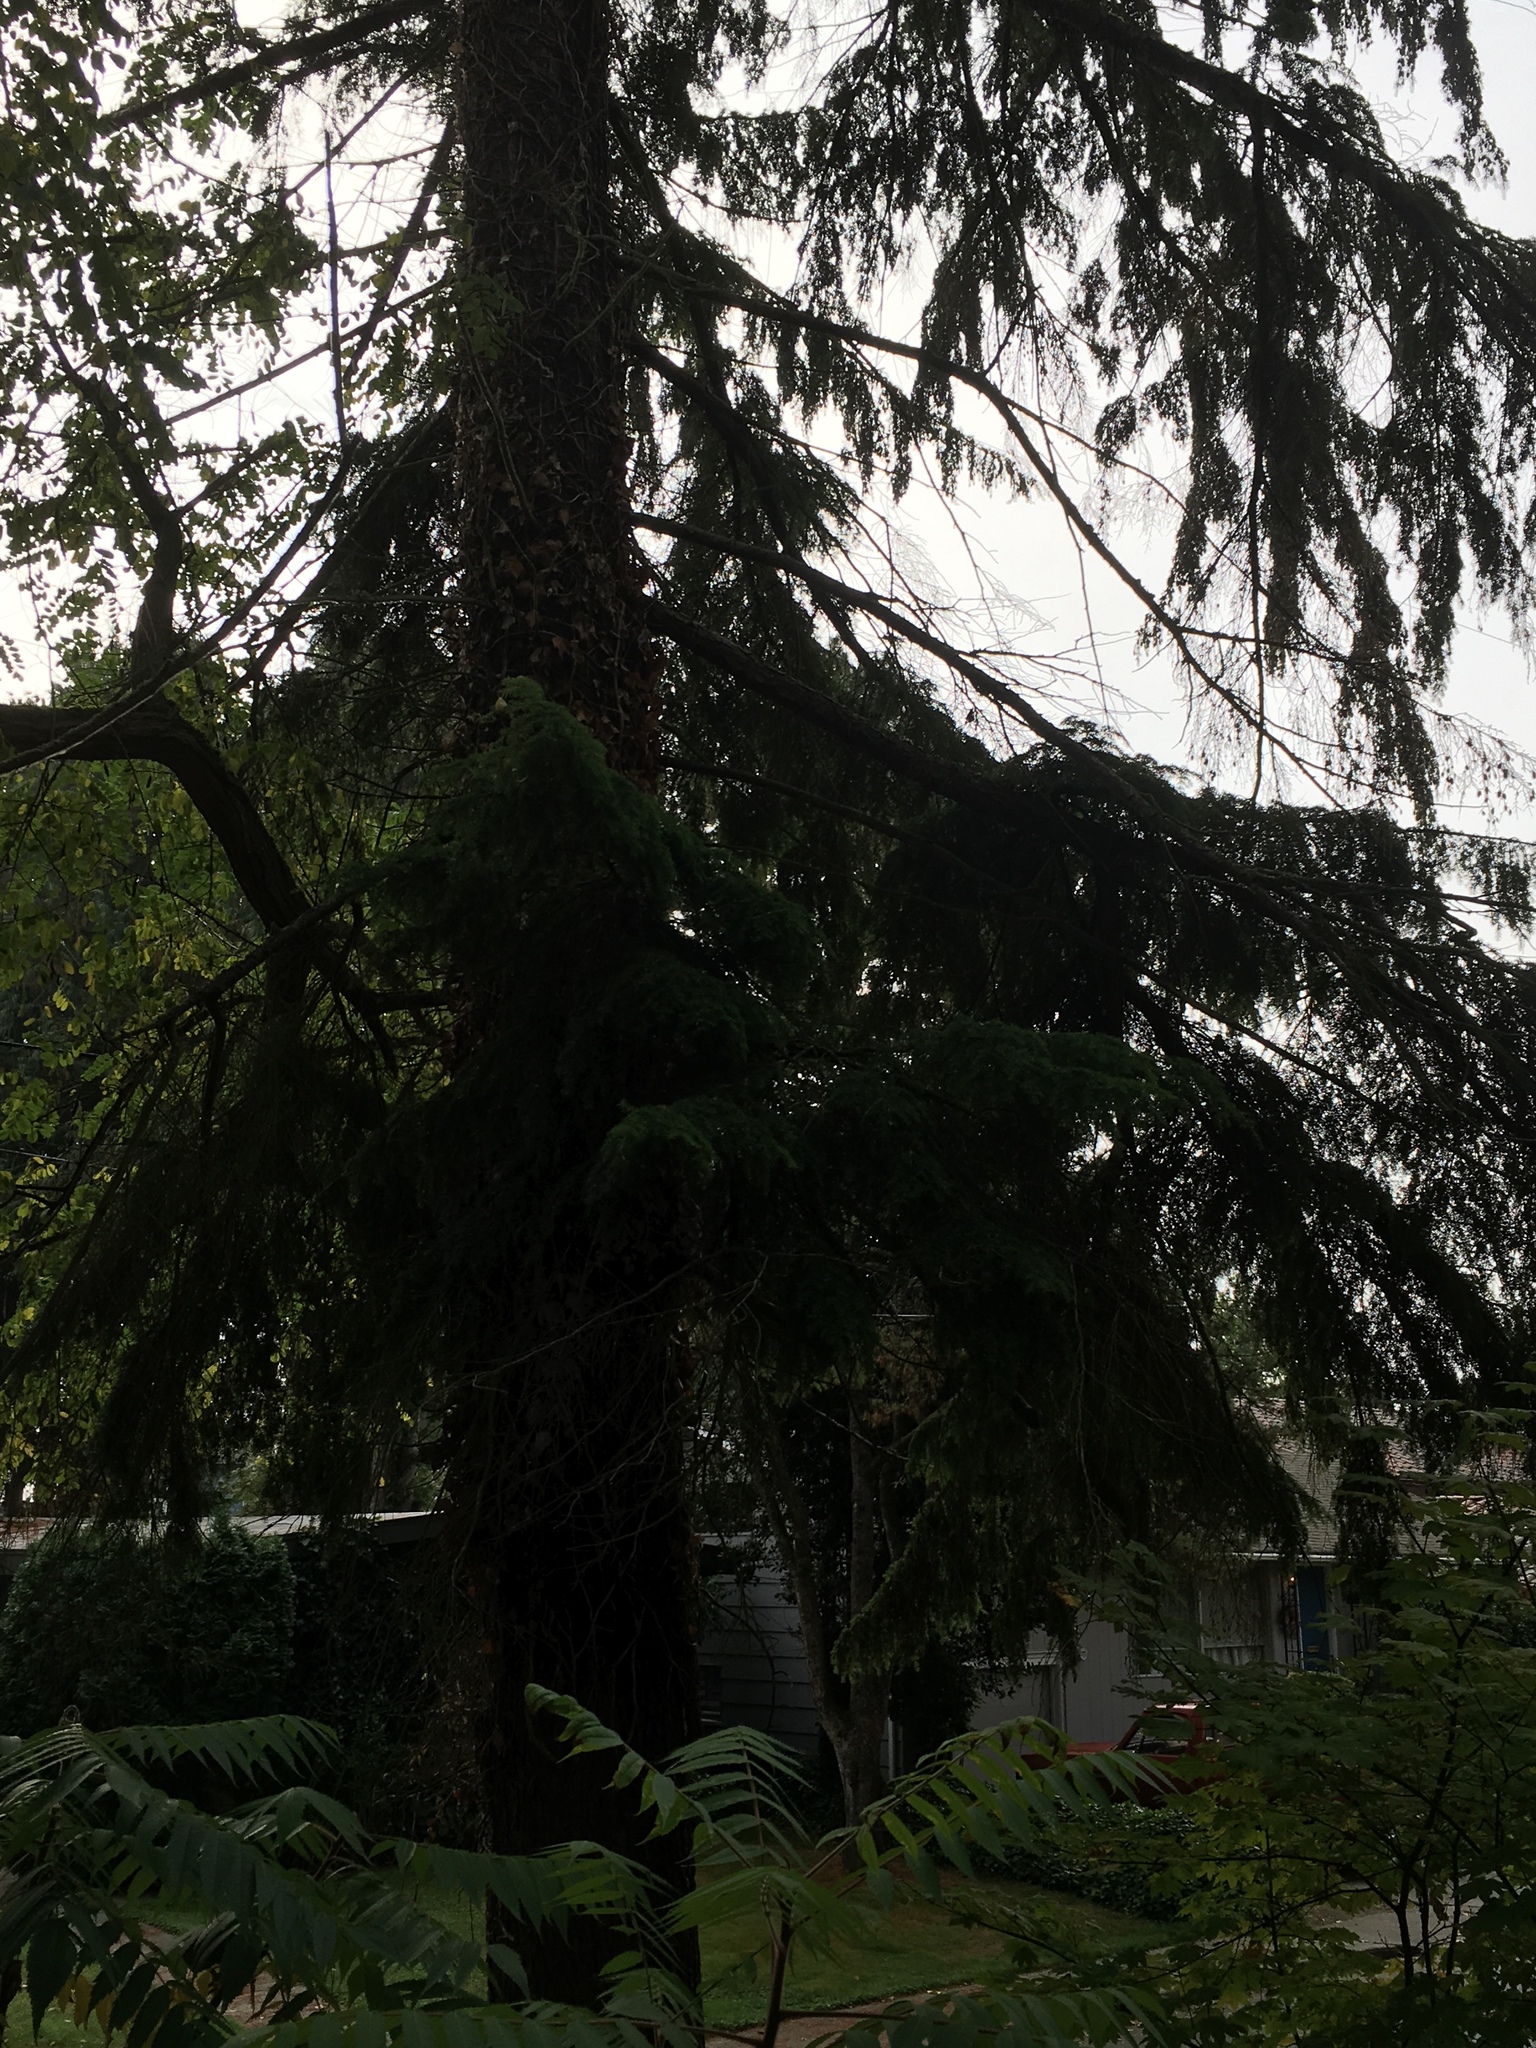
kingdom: Plantae
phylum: Tracheophyta
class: Pinopsida
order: Pinales
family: Pinaceae
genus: Tsuga
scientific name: Tsuga heterophylla
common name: Western hemlock
